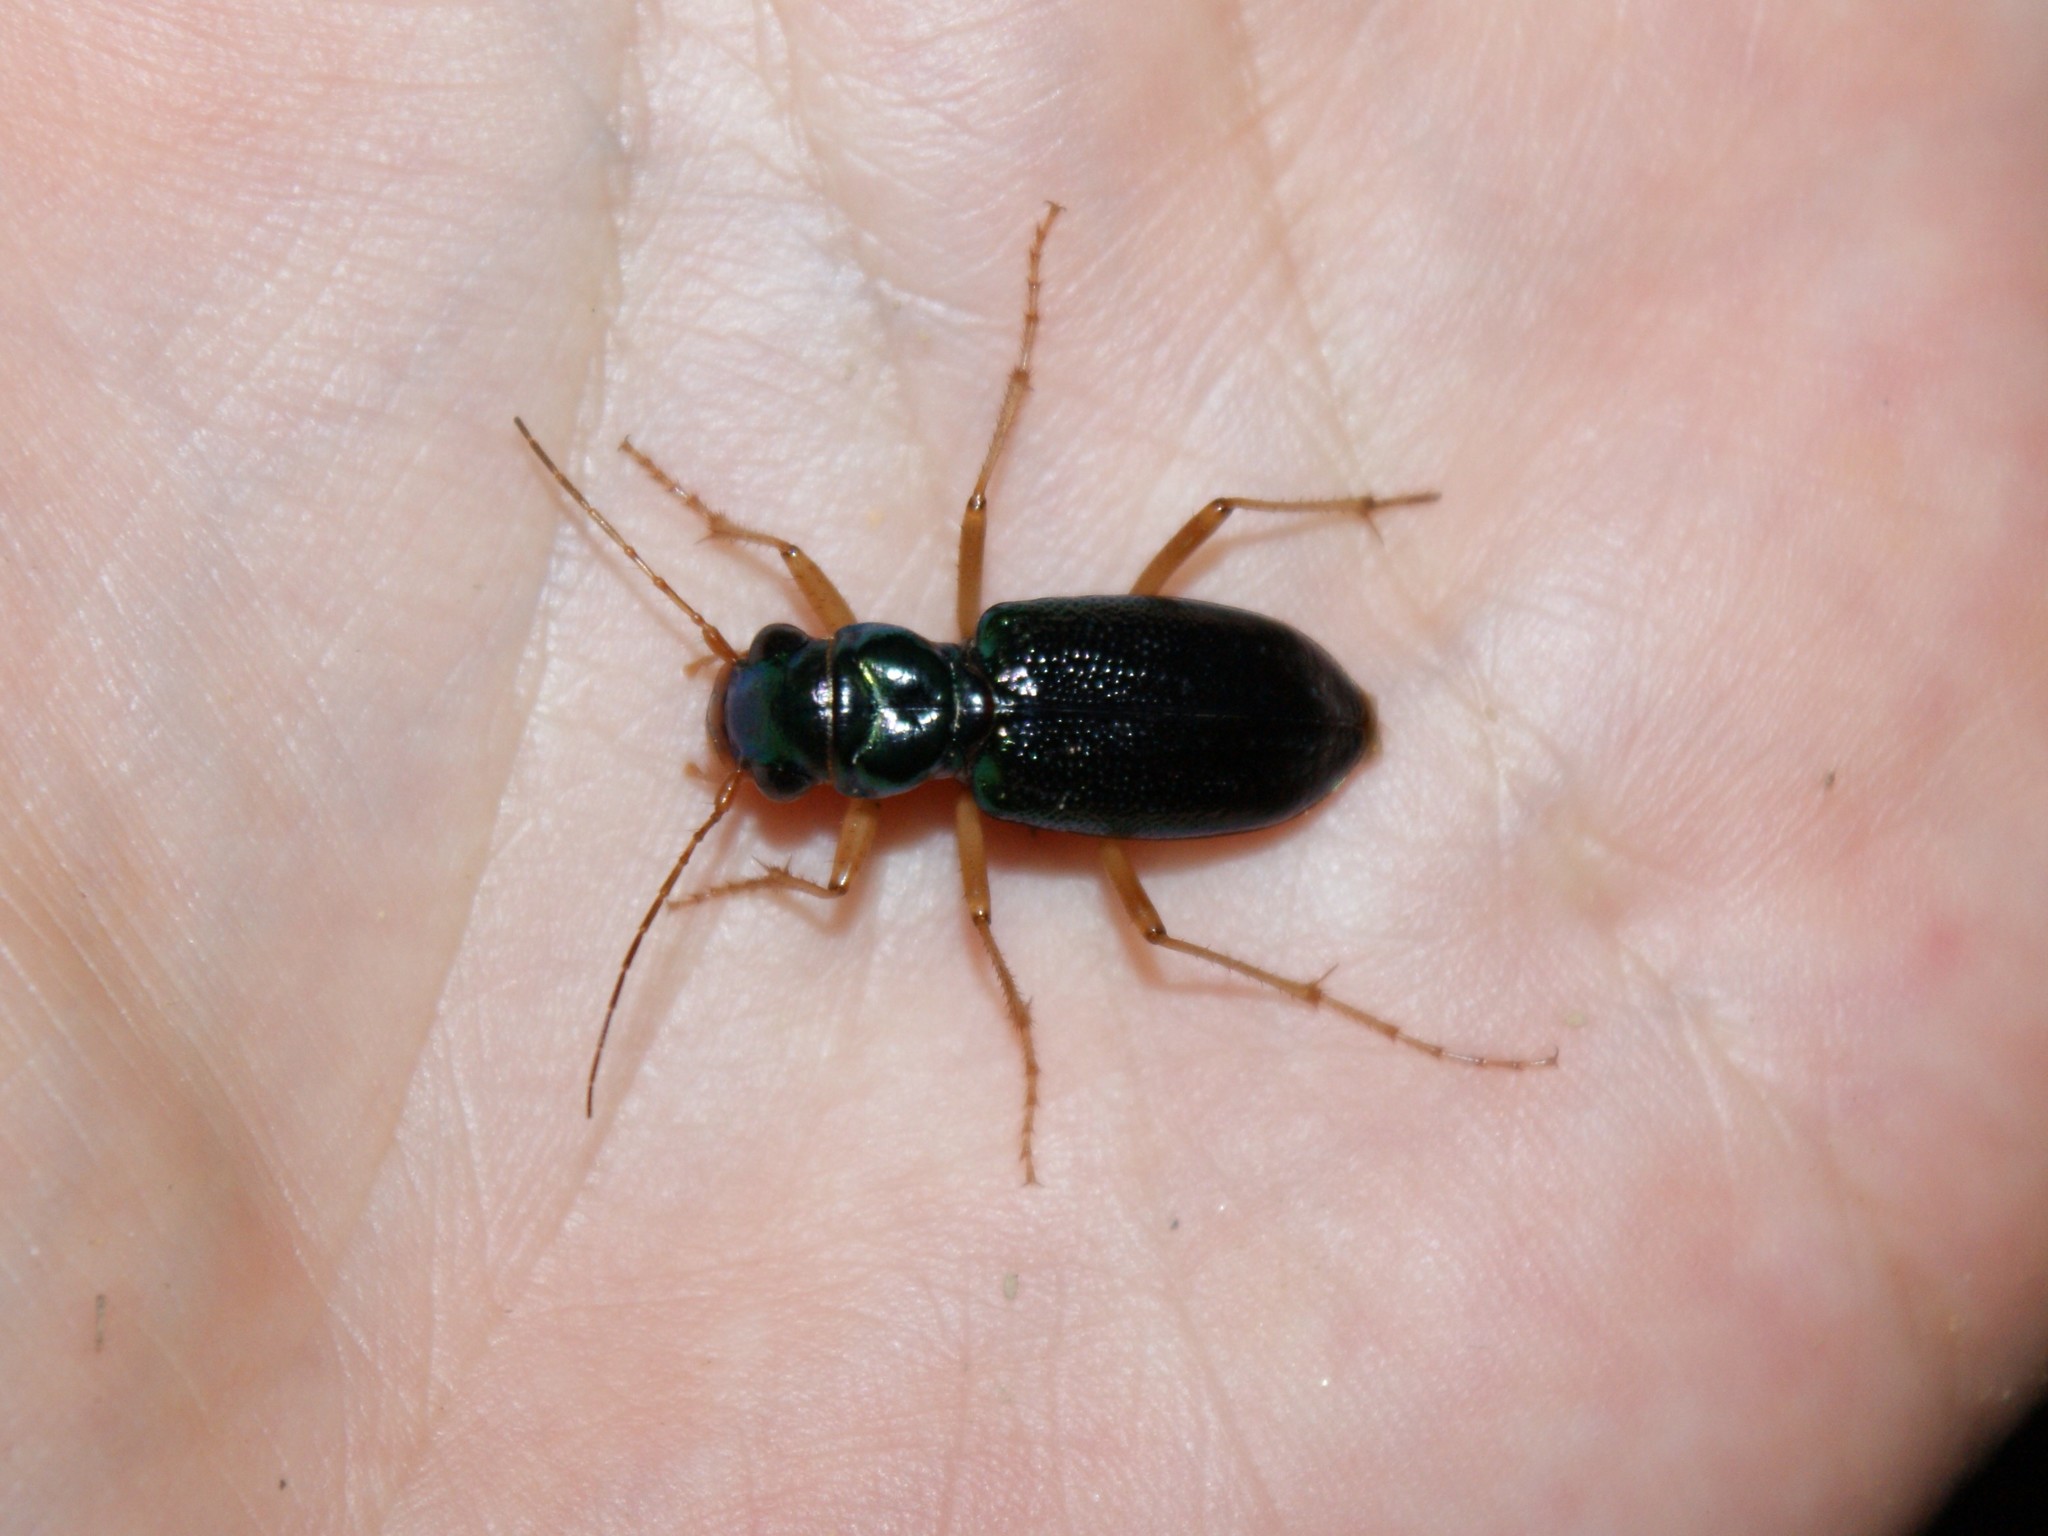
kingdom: Animalia
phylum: Arthropoda
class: Insecta
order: Coleoptera
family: Carabidae
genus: Tetracha
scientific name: Tetracha virginica
